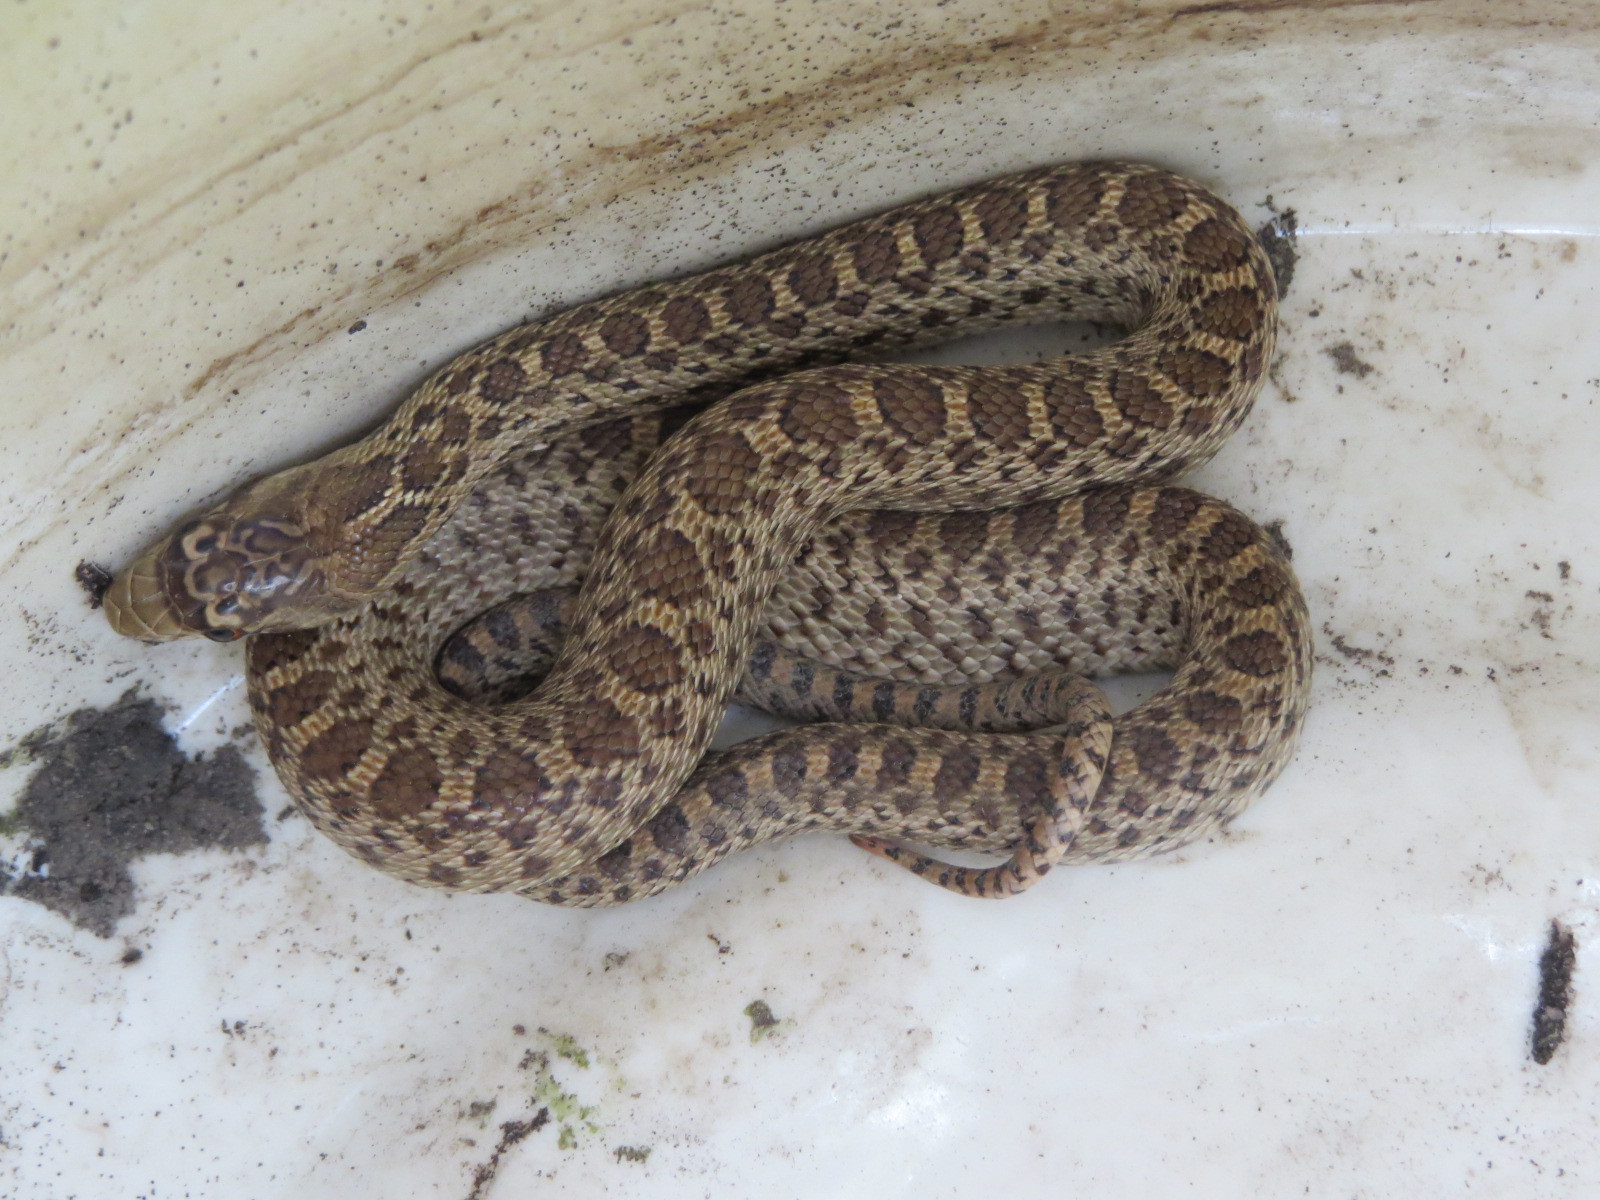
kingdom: Animalia
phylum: Chordata
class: Squamata
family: Colubridae
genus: Pituophis
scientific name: Pituophis catenifer
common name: Gopher snake
